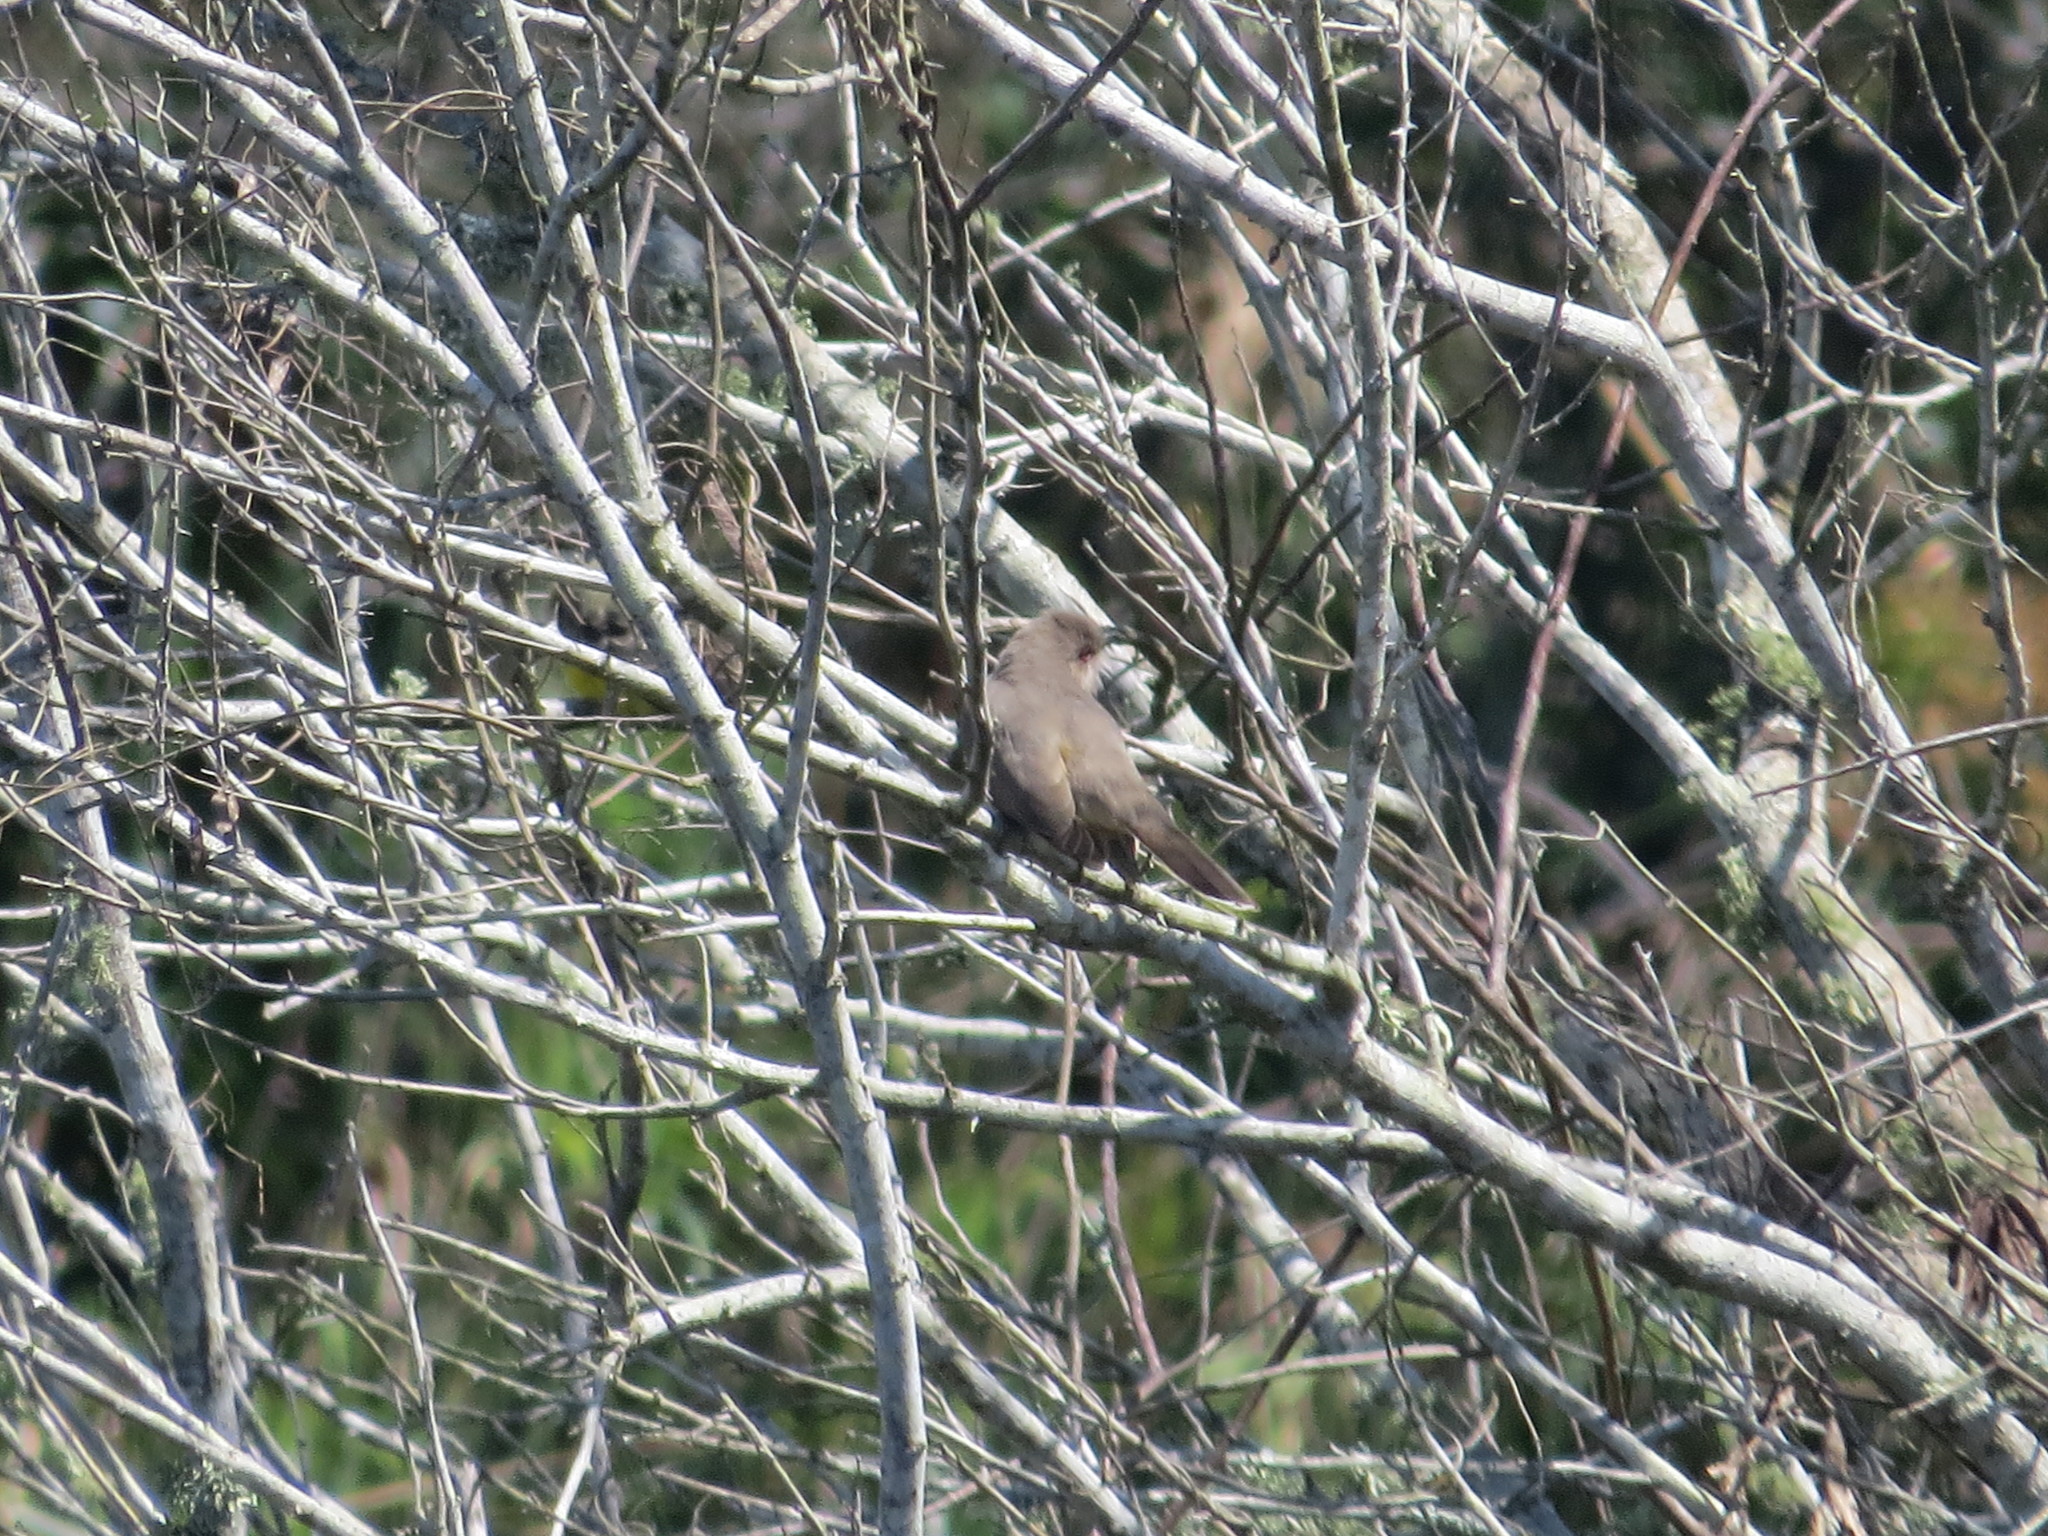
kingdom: Animalia
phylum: Chordata
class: Aves
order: Cuculiformes
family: Cuculidae
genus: Coccyzus
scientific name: Coccyzus cinereus
